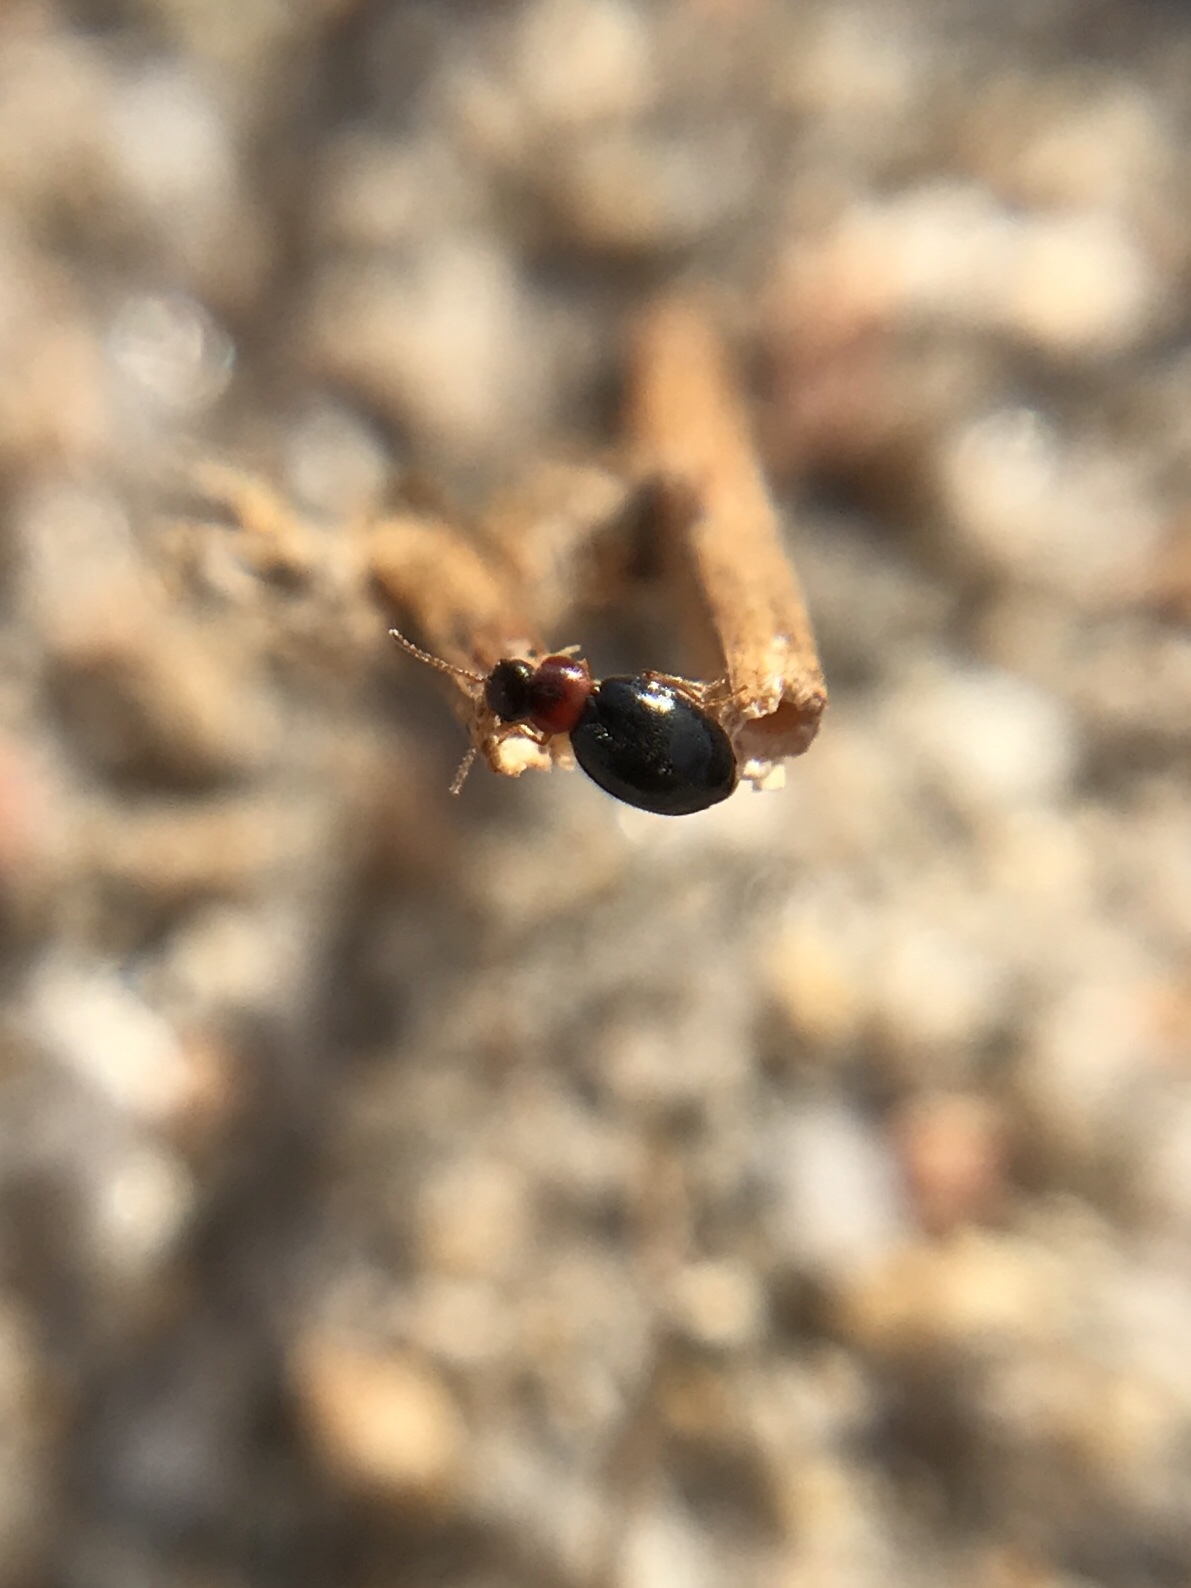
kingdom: Animalia
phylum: Arthropoda
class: Insecta
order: Coleoptera
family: Melyridae
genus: Colotes
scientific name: Colotes punctatus
